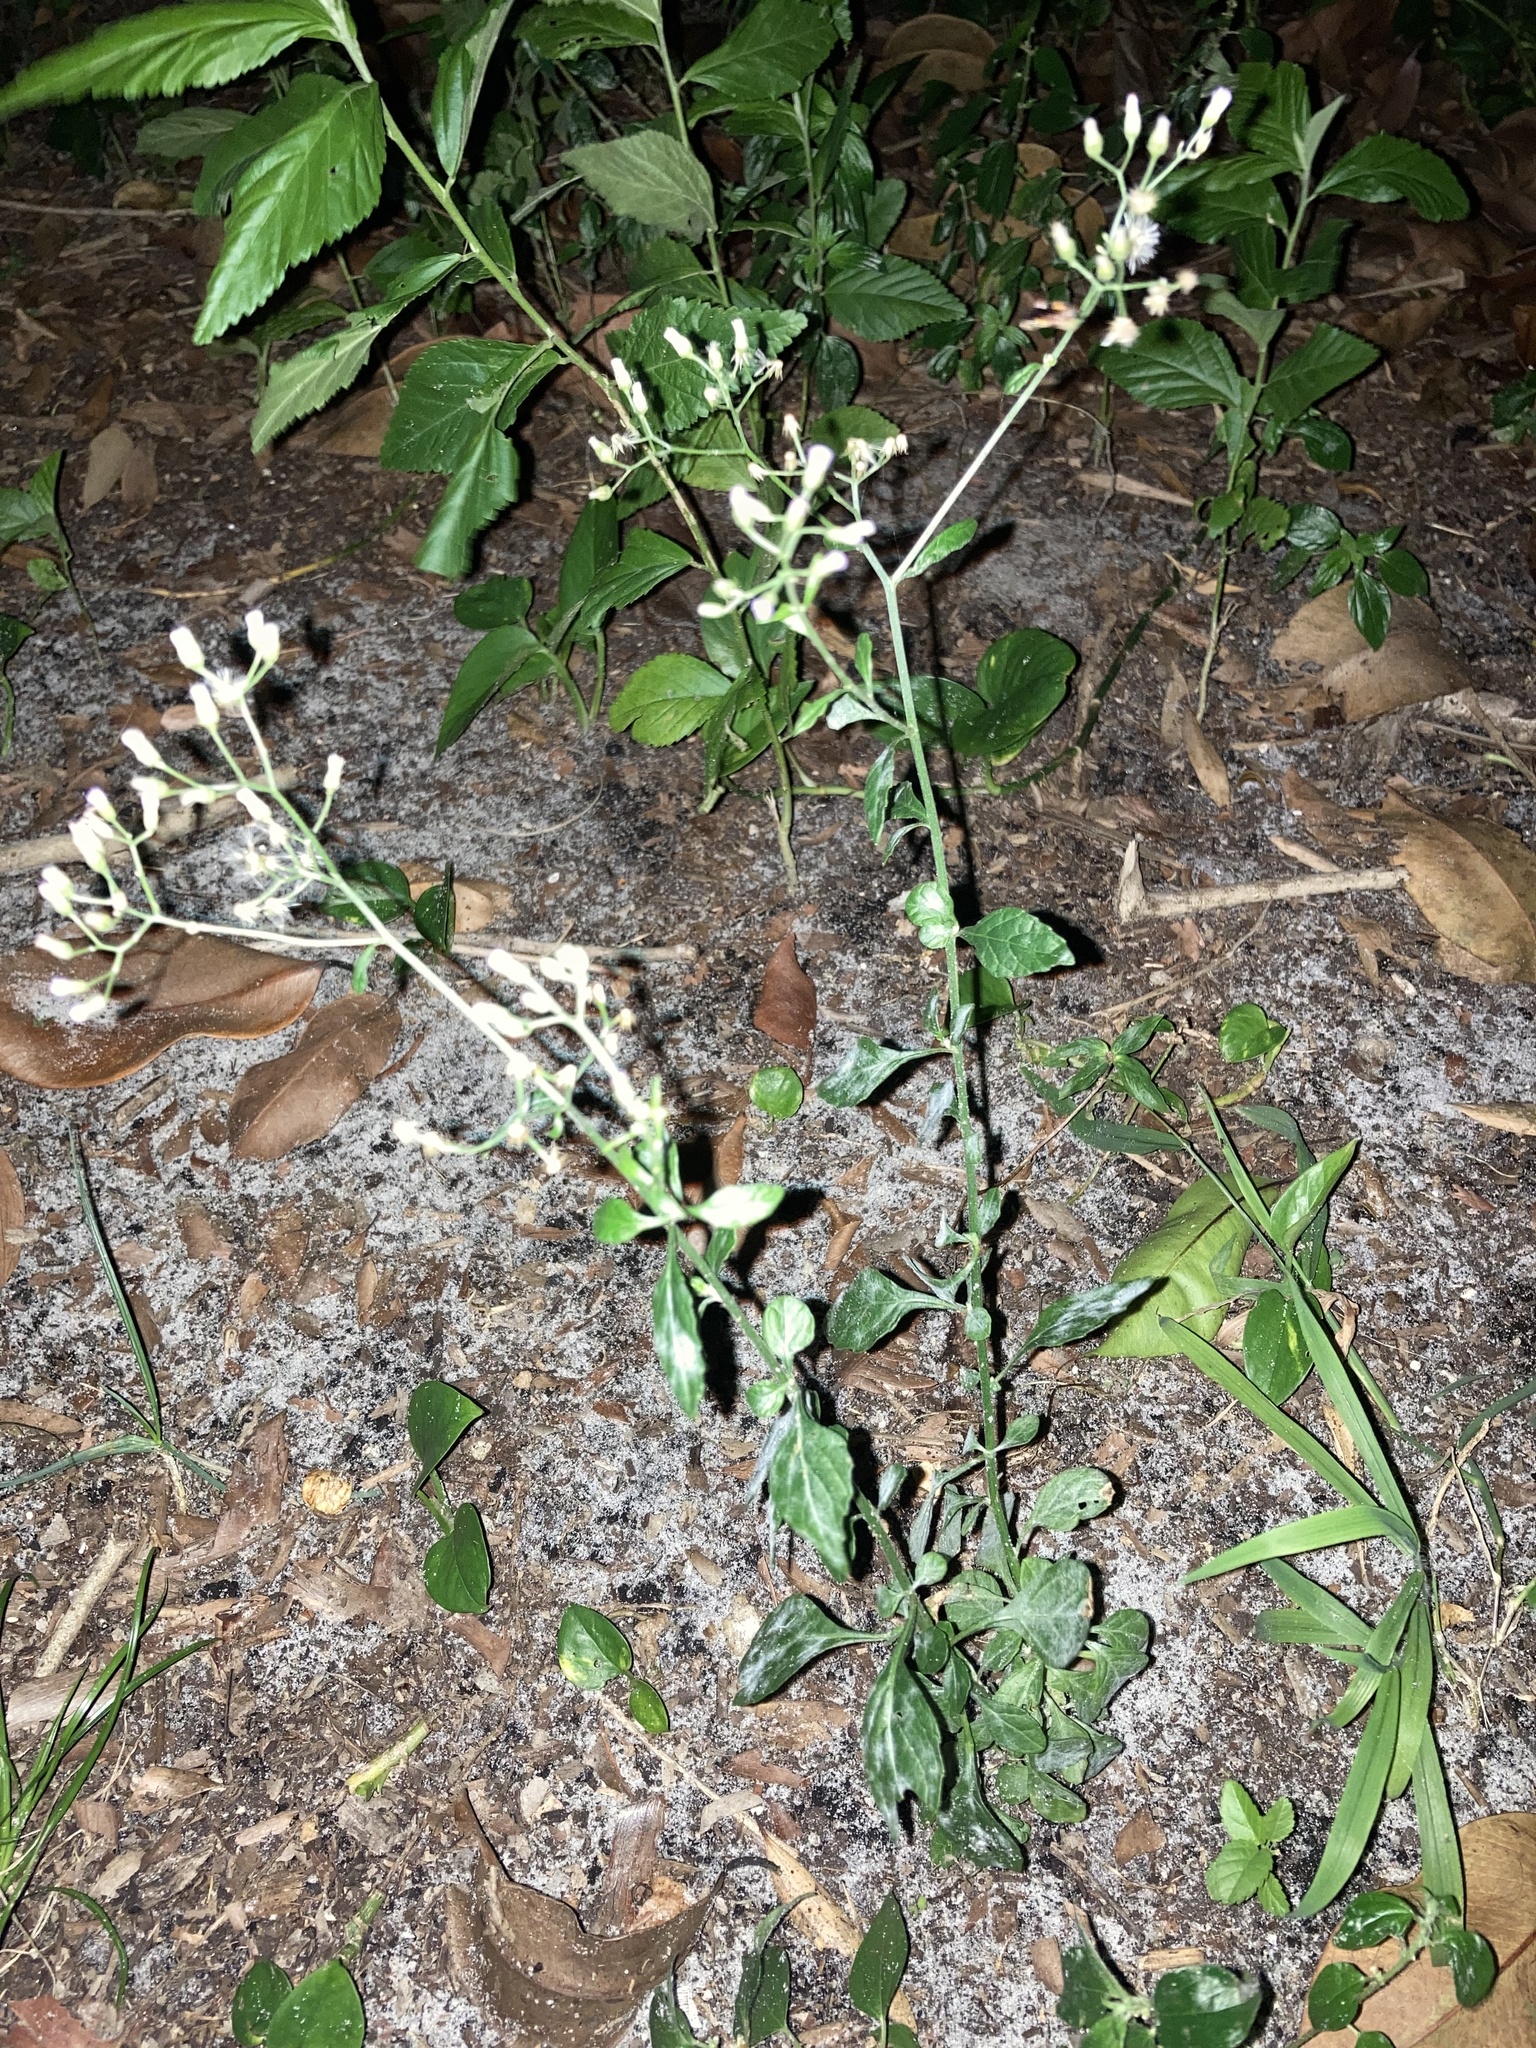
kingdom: Plantae
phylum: Tracheophyta
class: Magnoliopsida
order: Asterales
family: Asteraceae
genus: Cyanthillium
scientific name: Cyanthillium cinereum
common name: Little ironweed
